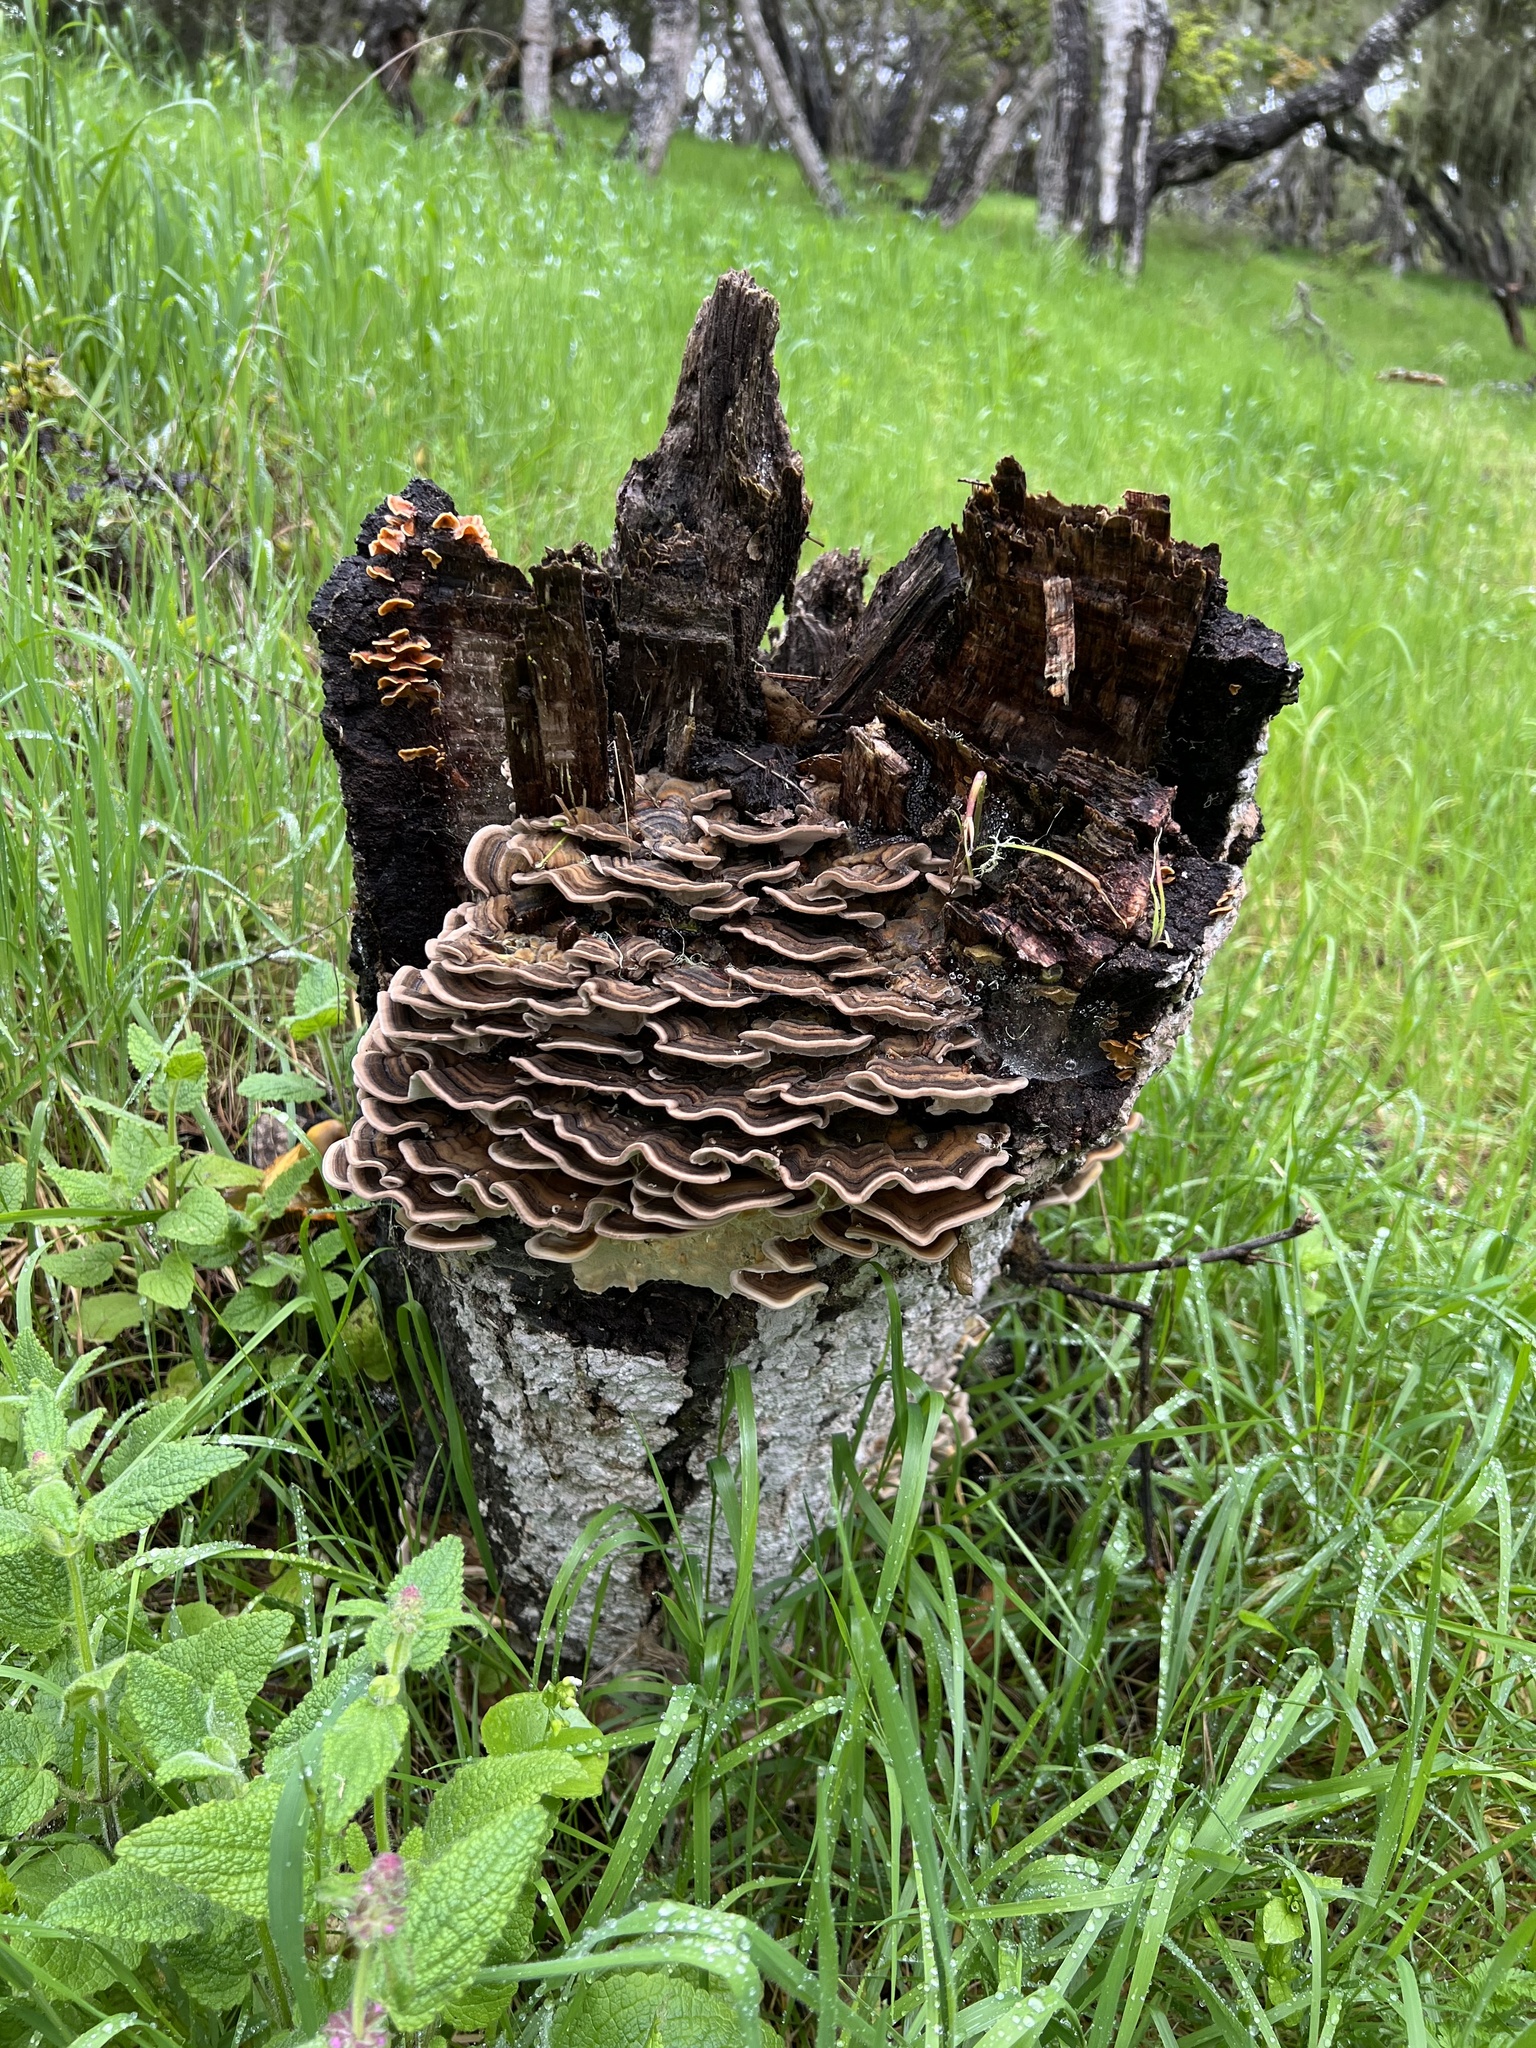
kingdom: Fungi
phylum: Basidiomycota
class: Agaricomycetes
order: Polyporales
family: Polyporaceae
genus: Trametes
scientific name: Trametes versicolor
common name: Turkeytail
